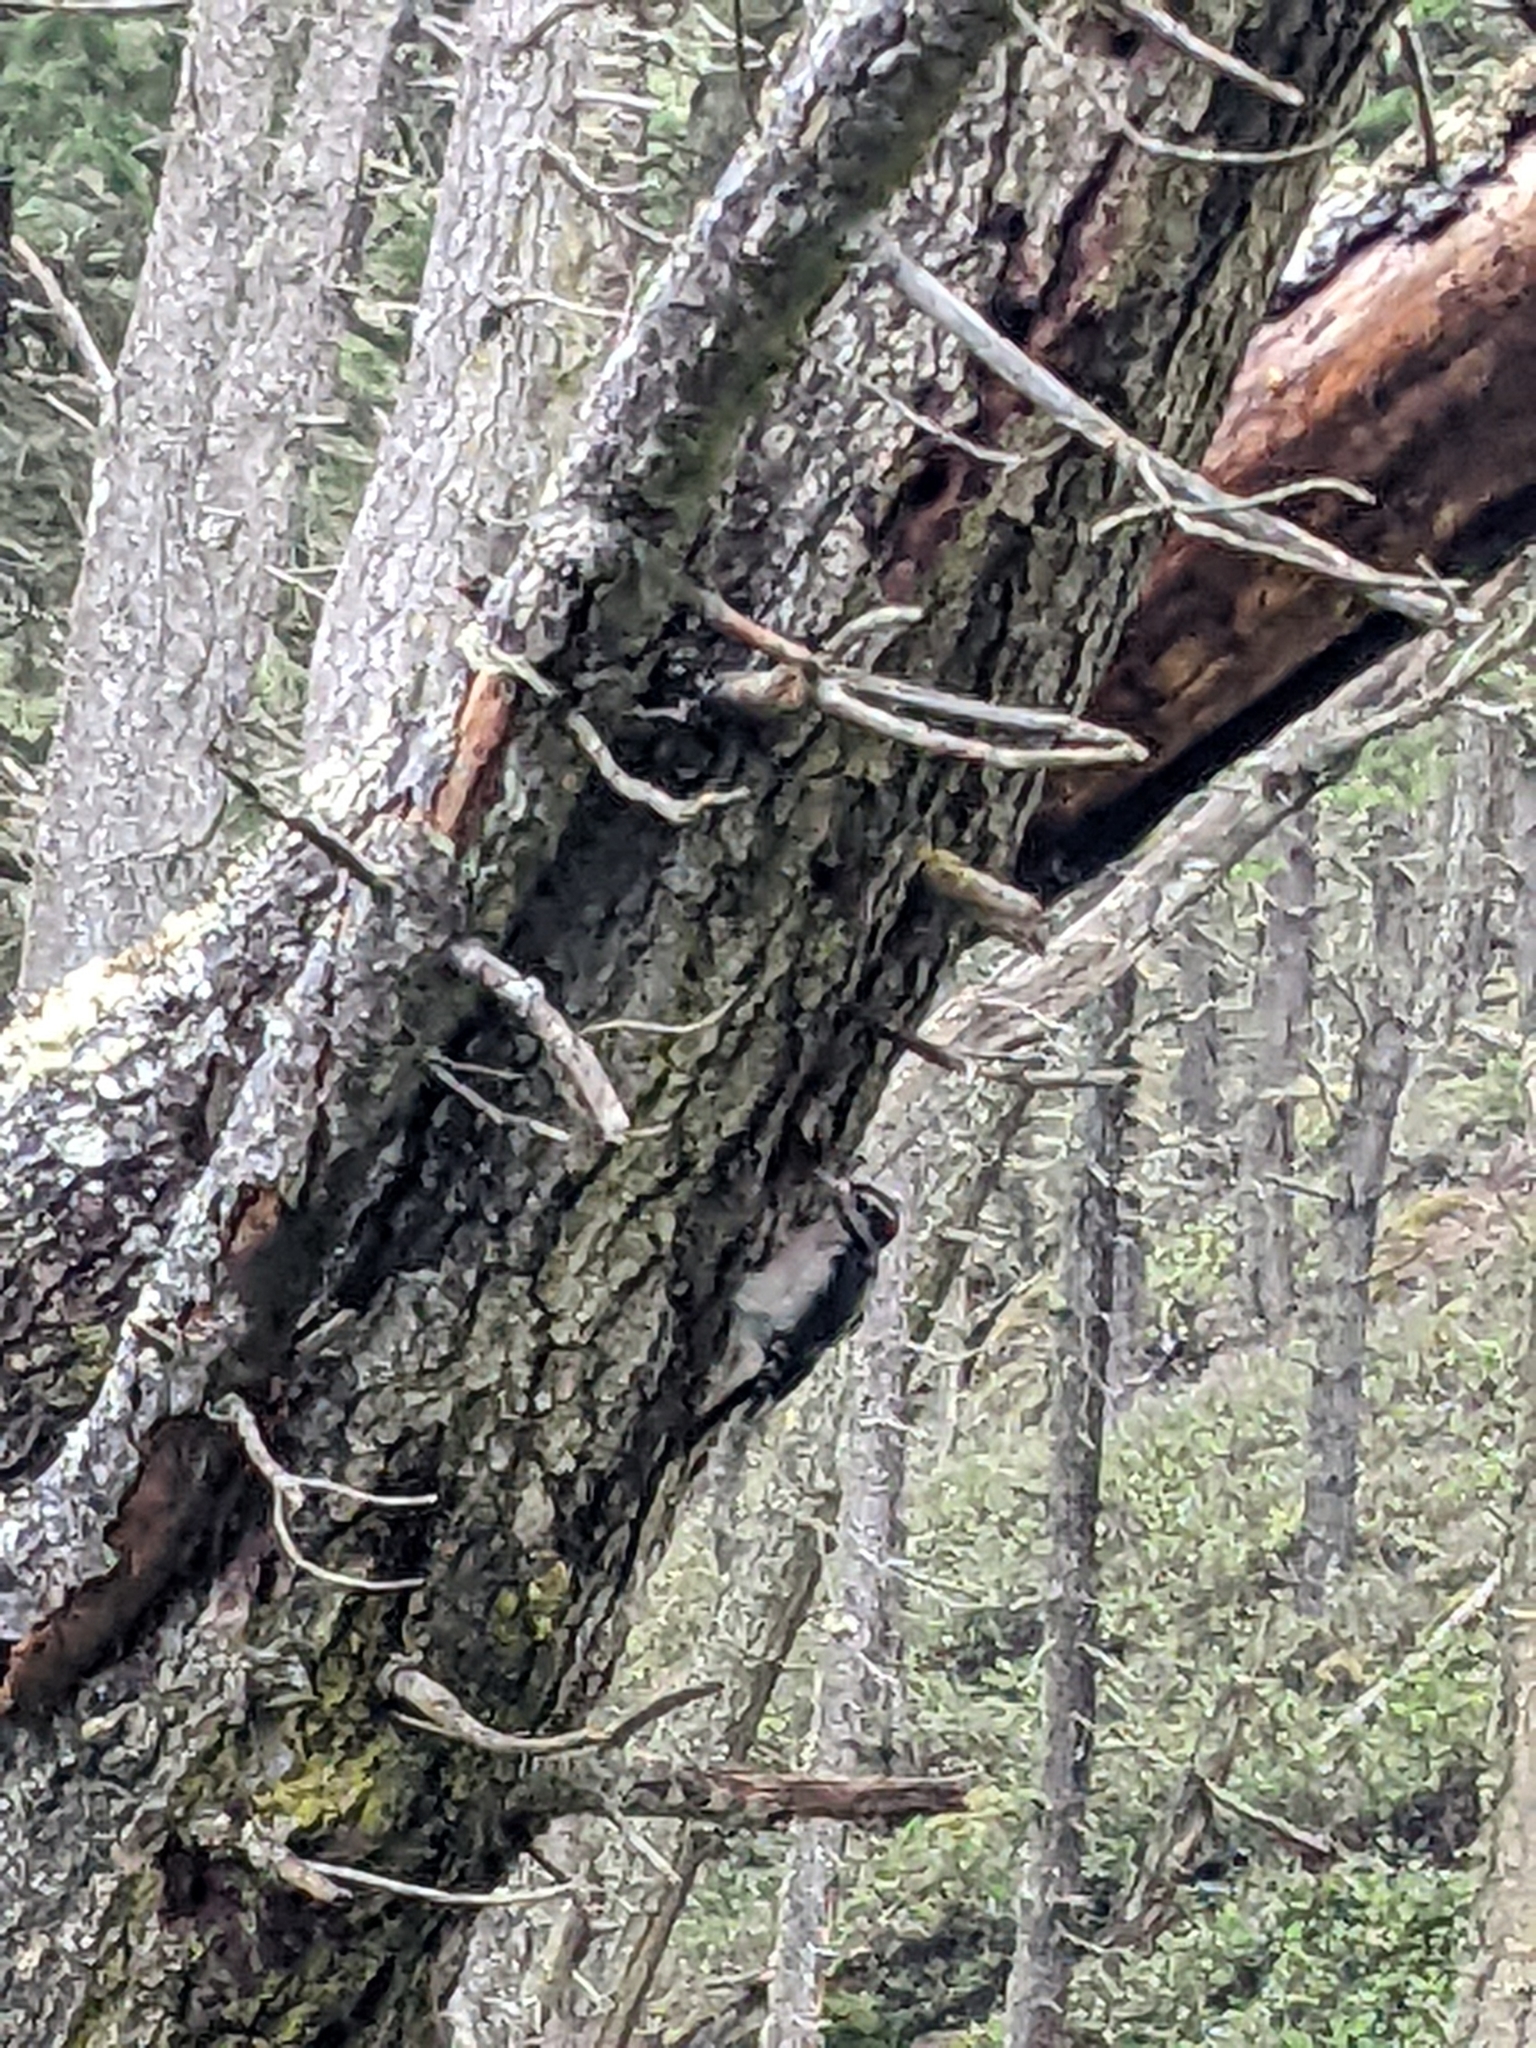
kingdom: Animalia
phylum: Chordata
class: Aves
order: Piciformes
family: Picidae
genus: Leuconotopicus
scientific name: Leuconotopicus villosus
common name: Hairy woodpecker
